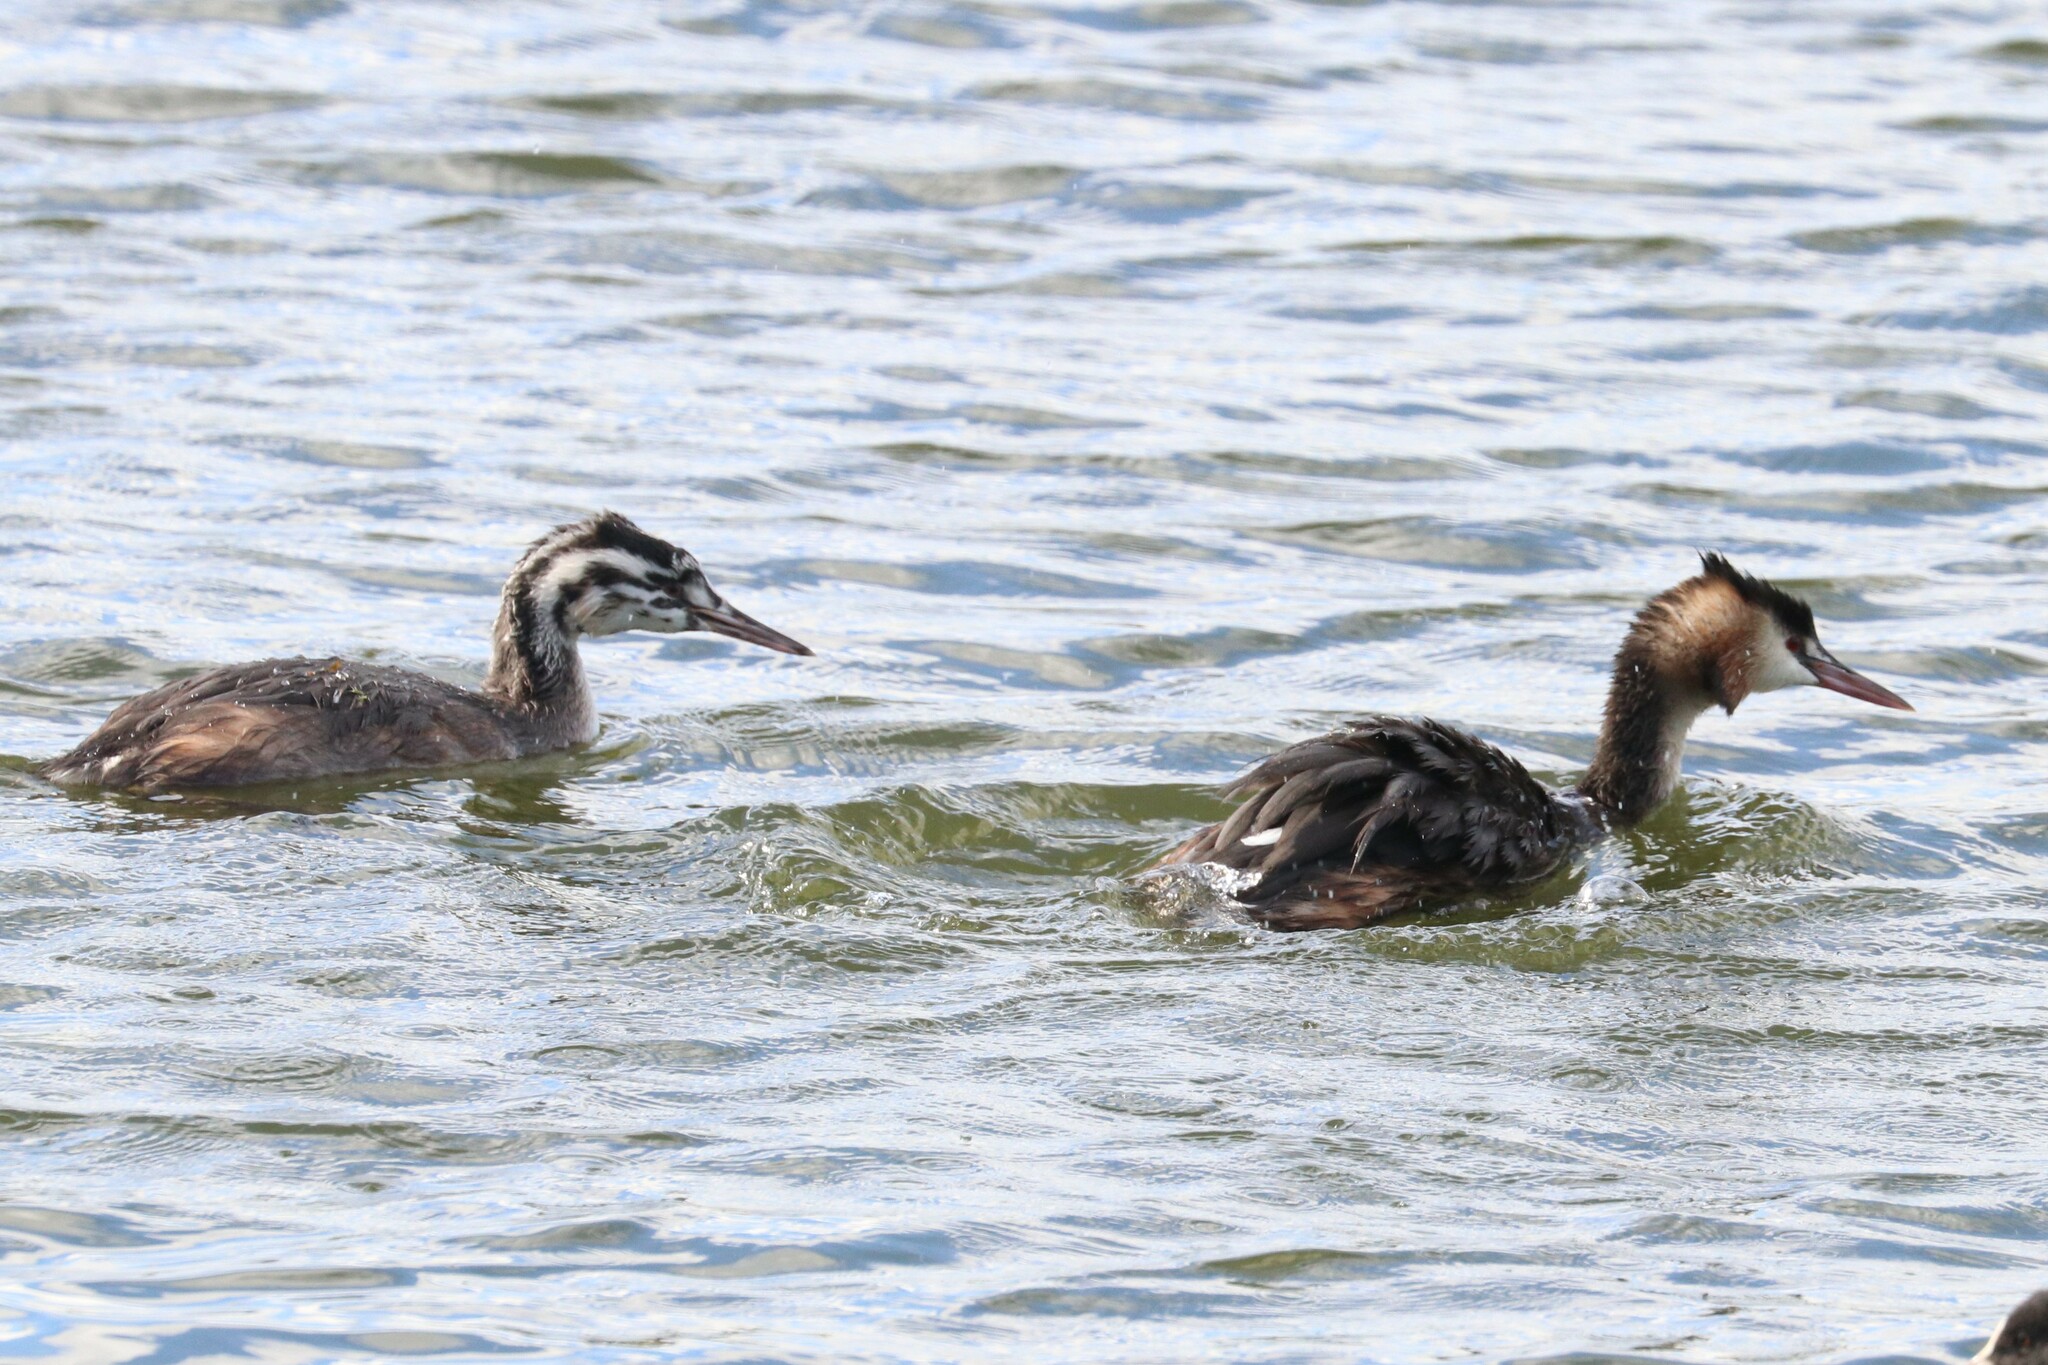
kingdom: Animalia
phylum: Chordata
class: Aves
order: Podicipediformes
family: Podicipedidae
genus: Podiceps
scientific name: Podiceps cristatus
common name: Great crested grebe
